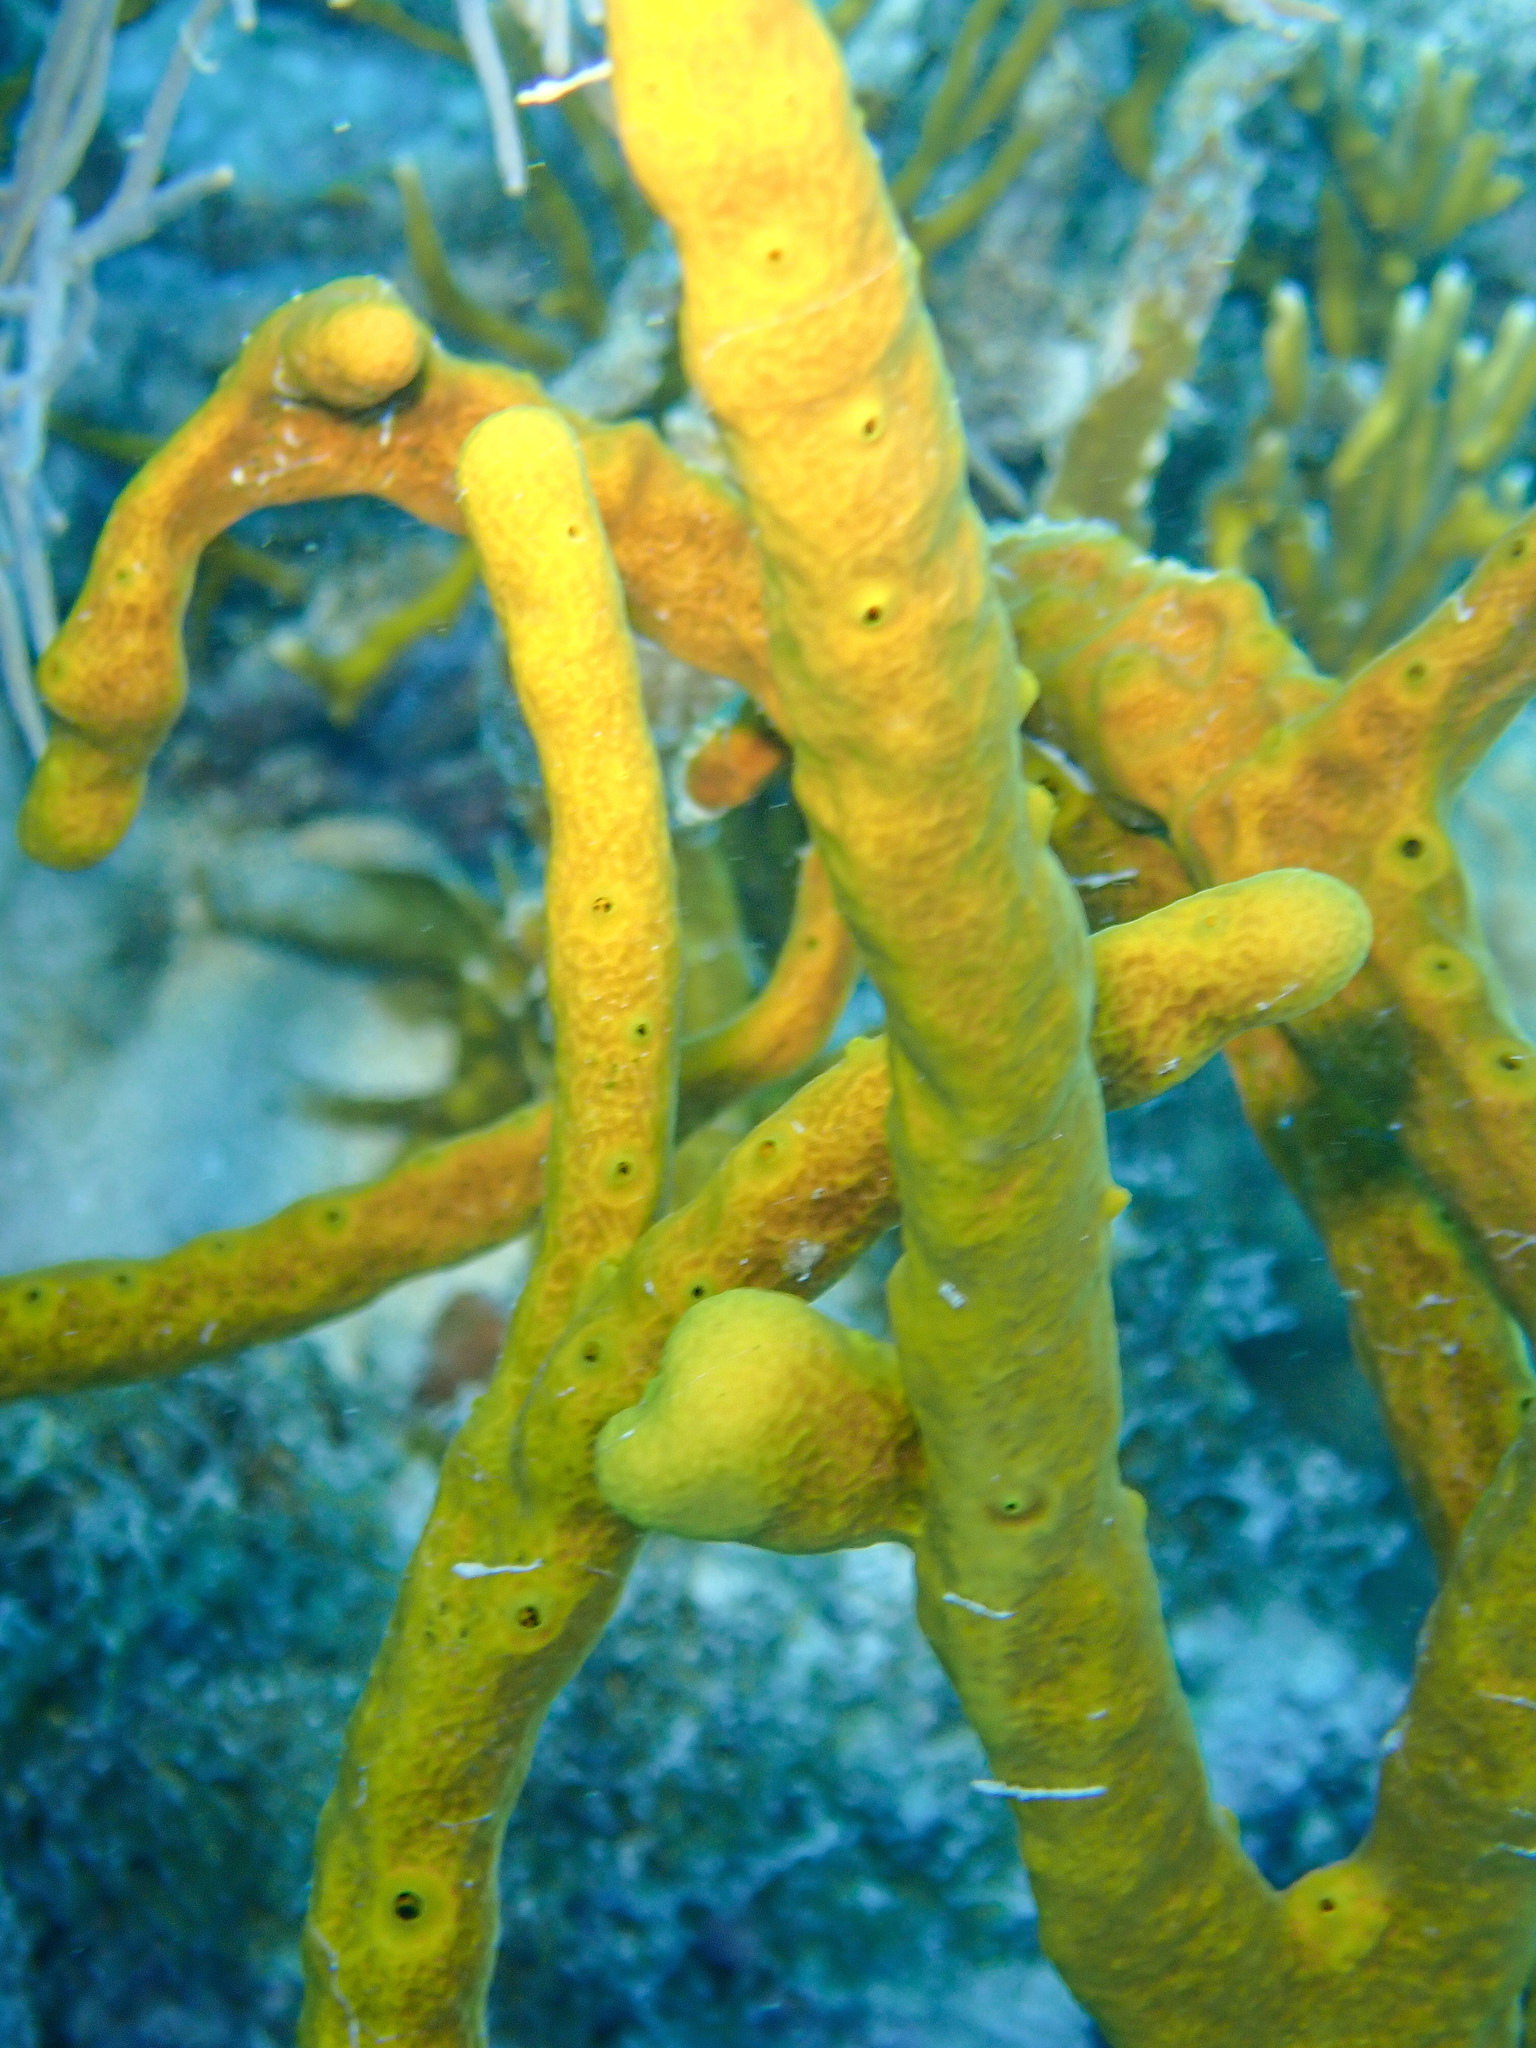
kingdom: Animalia
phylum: Porifera
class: Demospongiae
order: Verongiida
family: Aplysinidae
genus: Aplysina
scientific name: Aplysina fulva
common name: Scattered pore rope sponge
